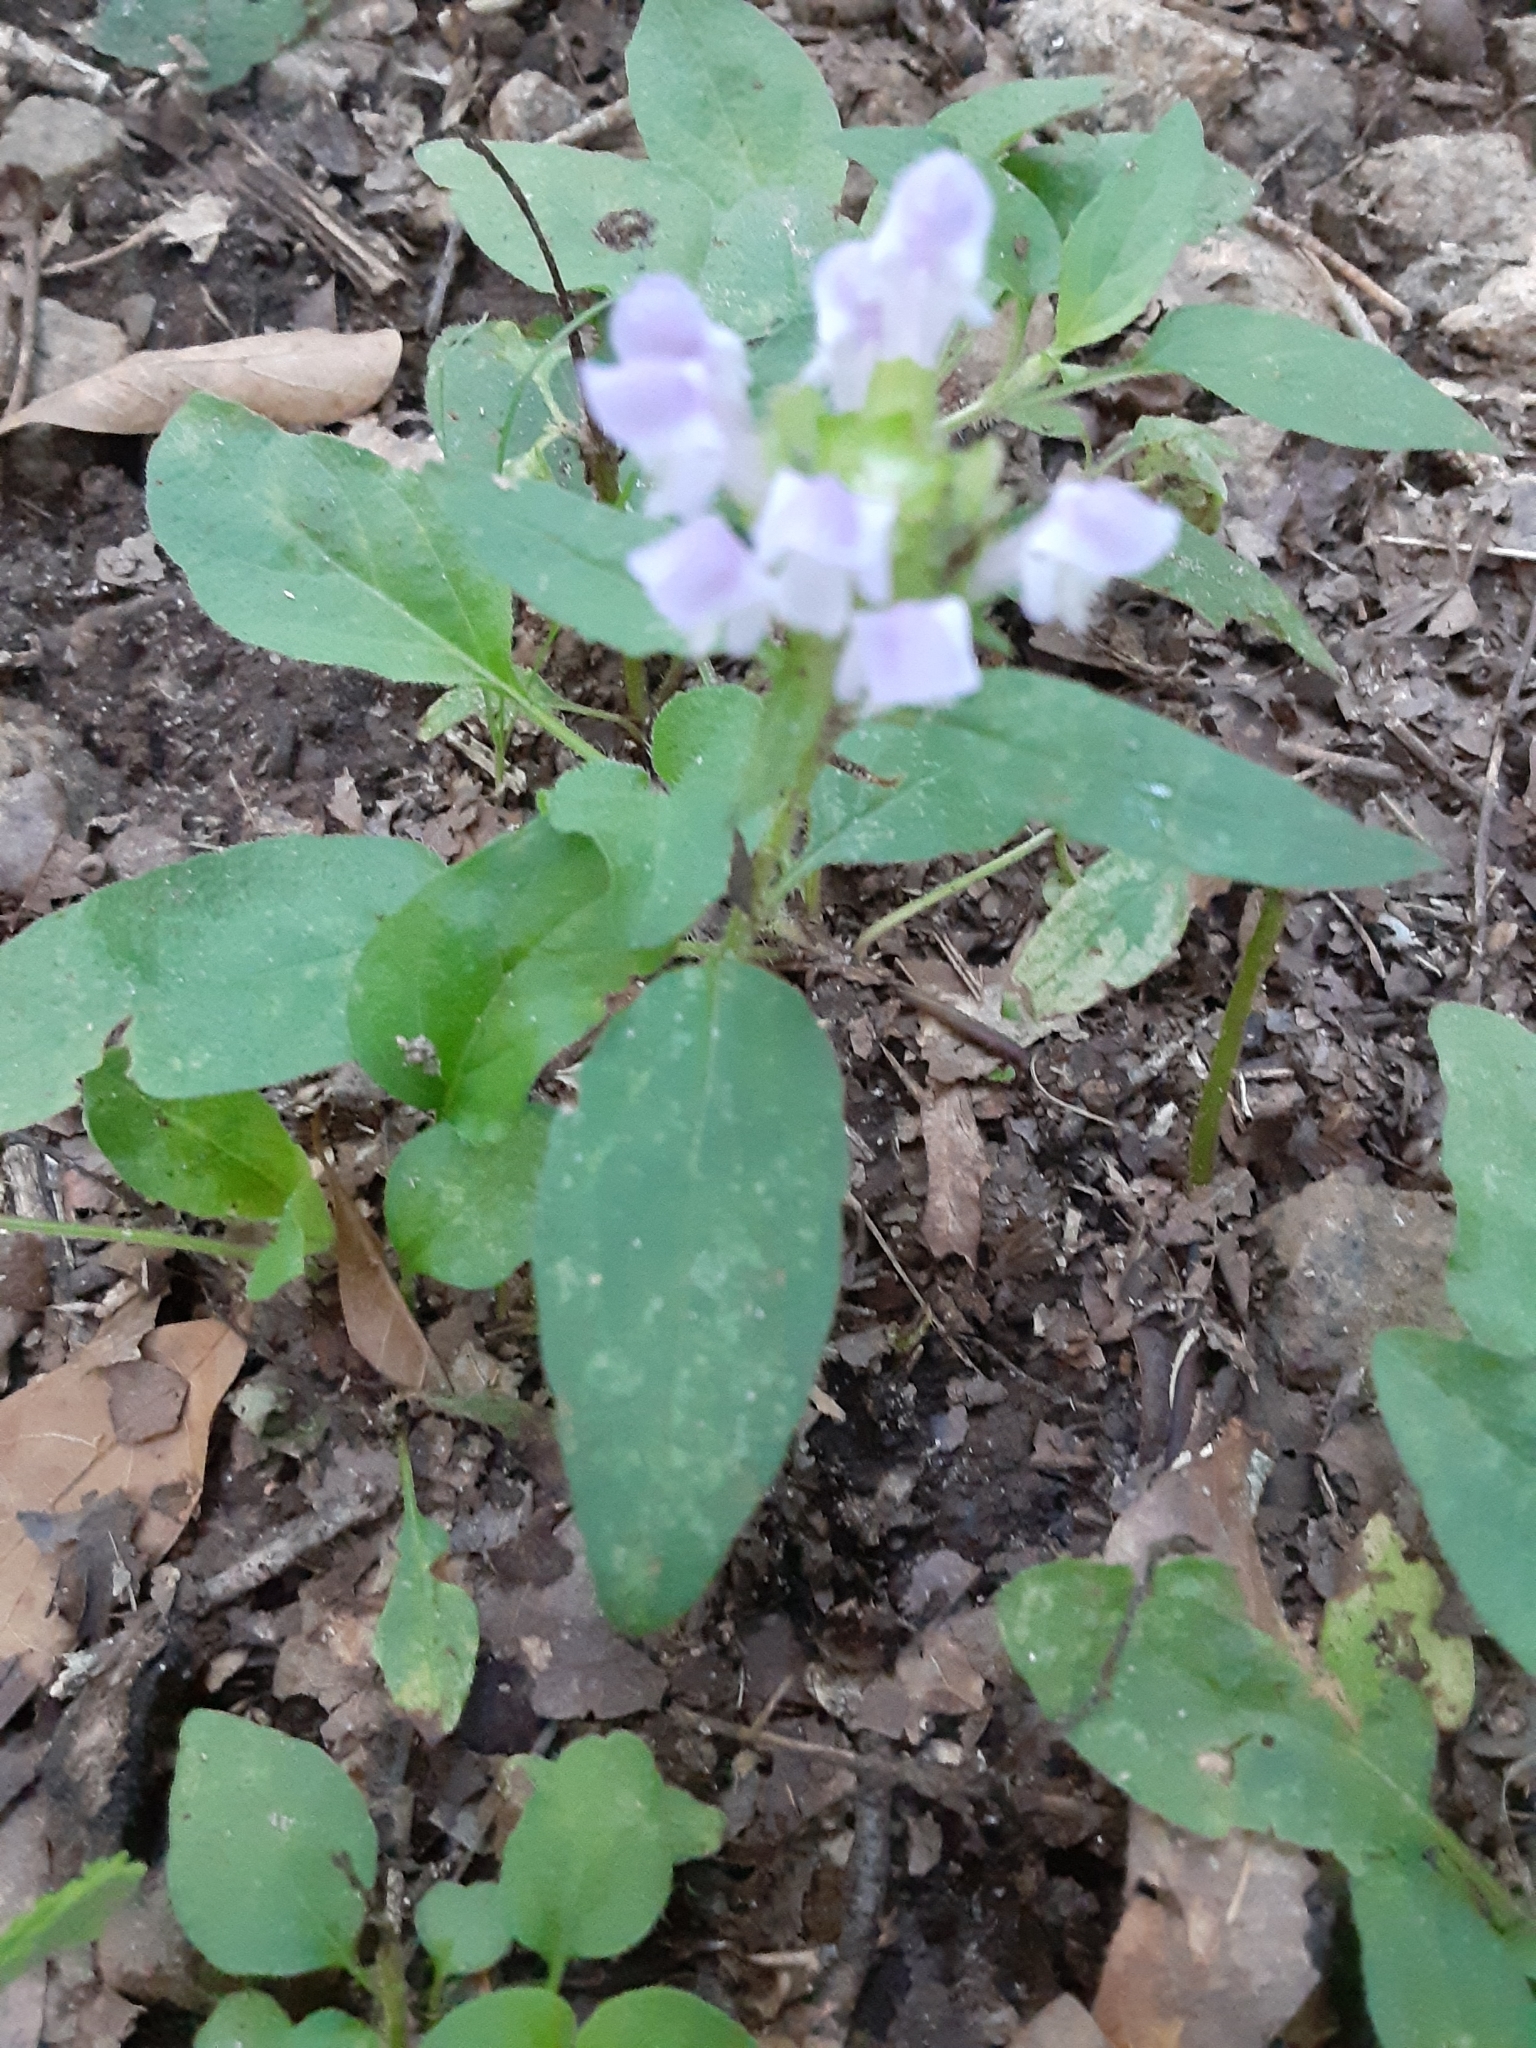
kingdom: Plantae
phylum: Tracheophyta
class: Magnoliopsida
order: Lamiales
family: Lamiaceae
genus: Prunella
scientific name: Prunella vulgaris
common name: Heal-all
